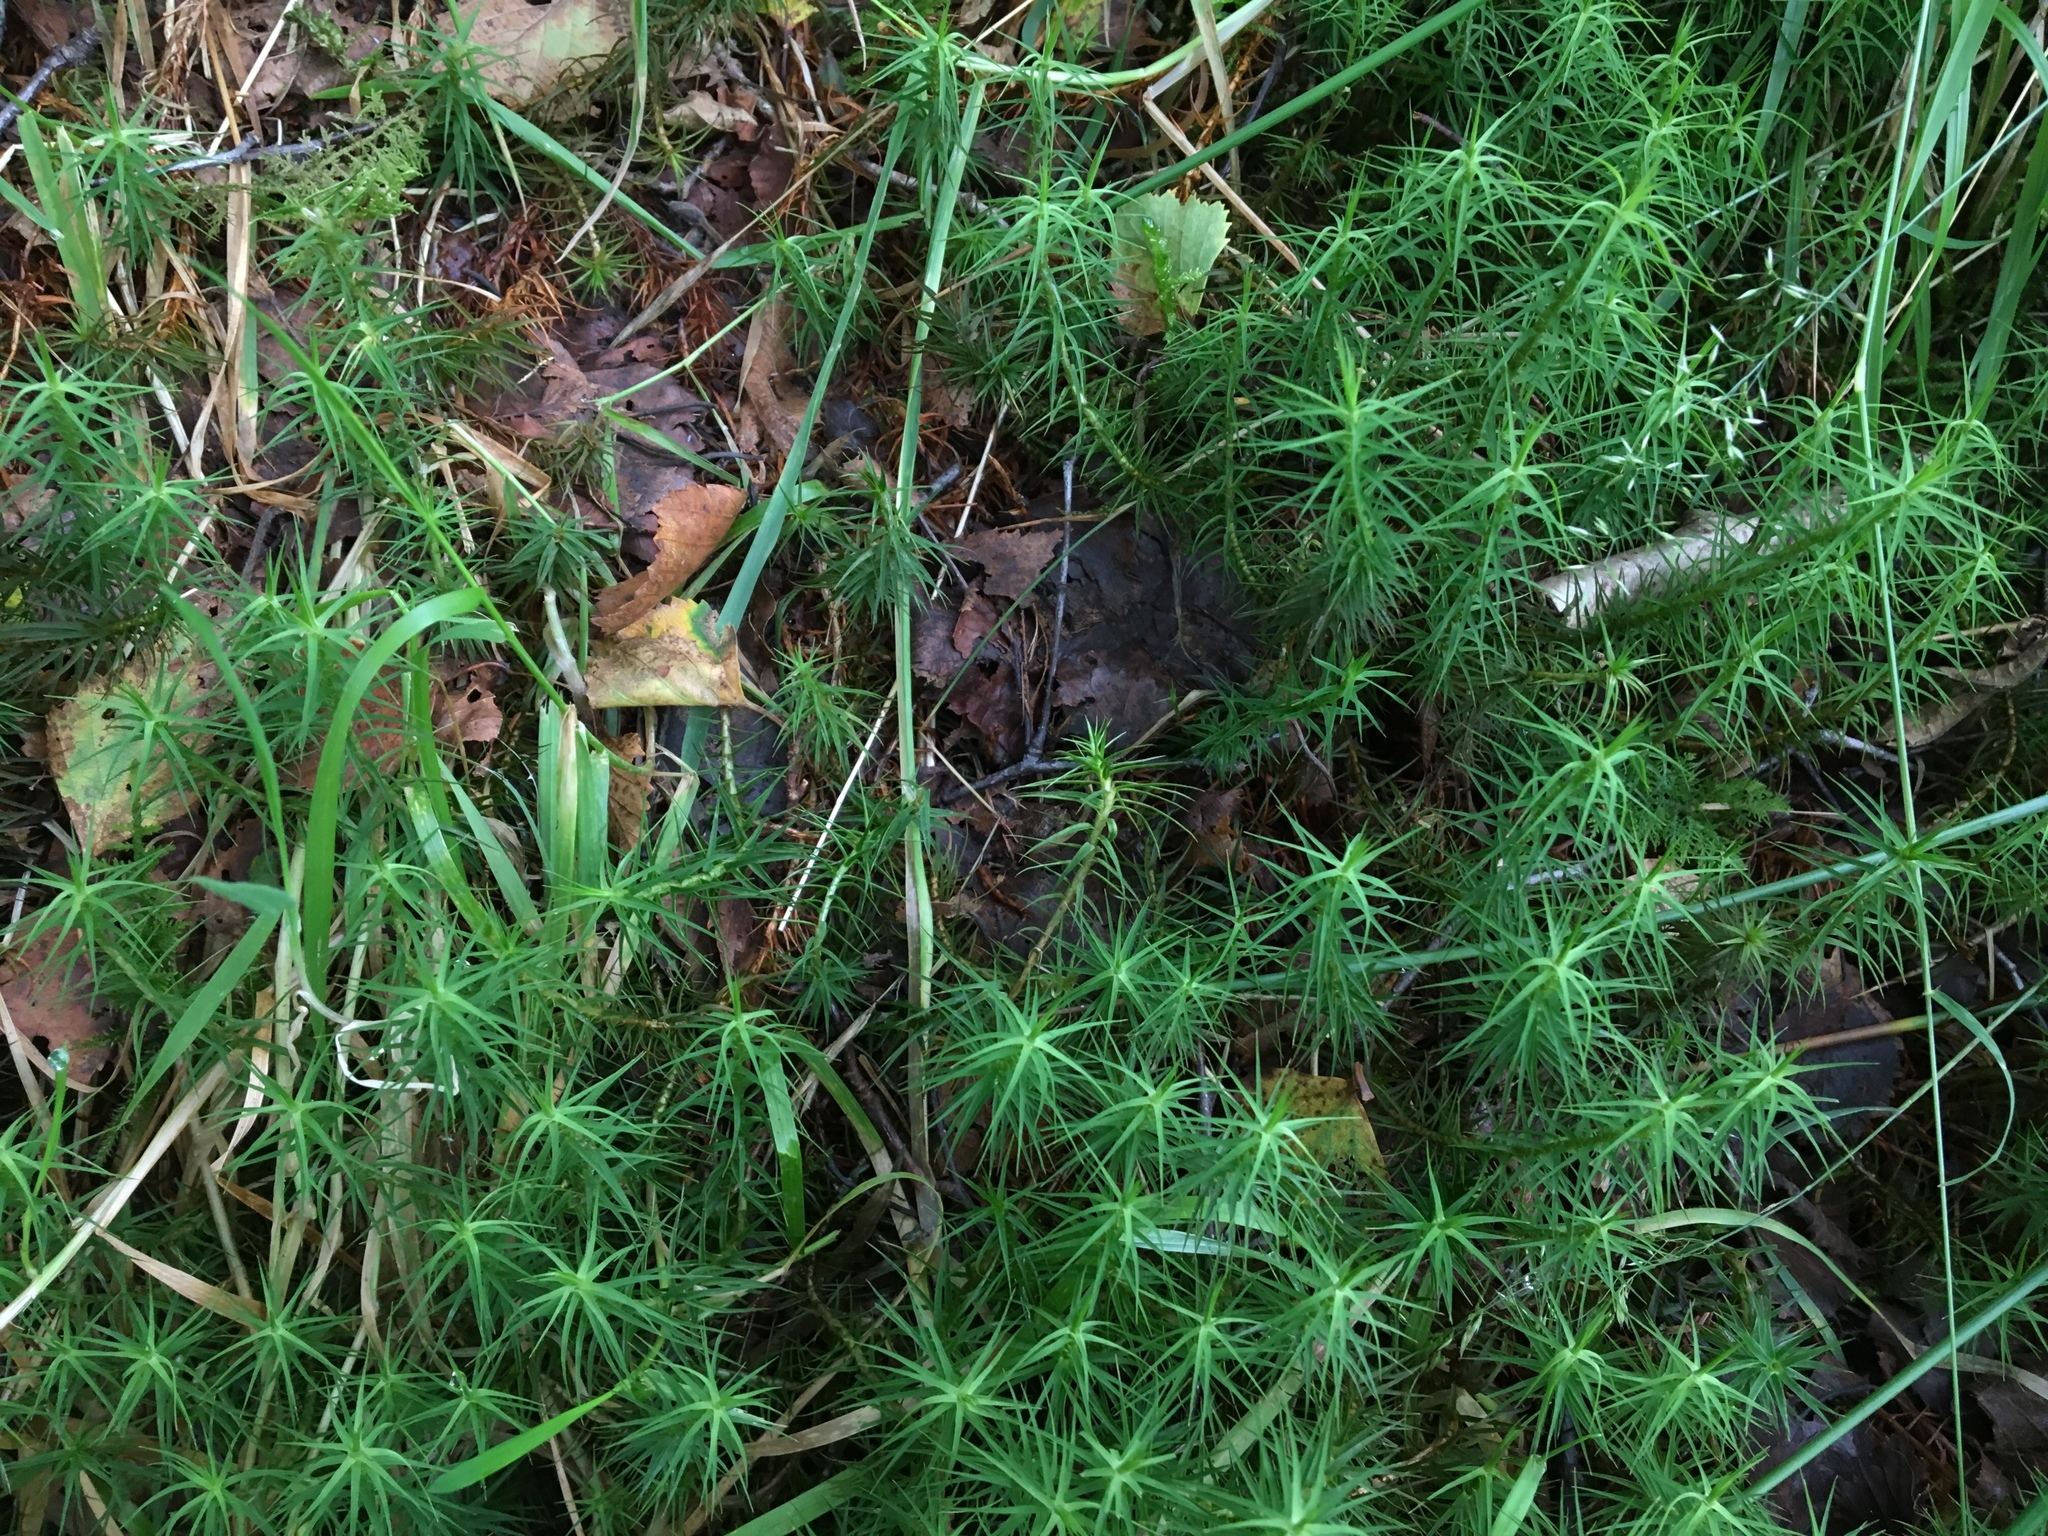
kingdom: Plantae
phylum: Bryophyta
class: Polytrichopsida
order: Polytrichales
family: Polytrichaceae
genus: Polytrichum
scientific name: Polytrichum commune
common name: Common haircap
